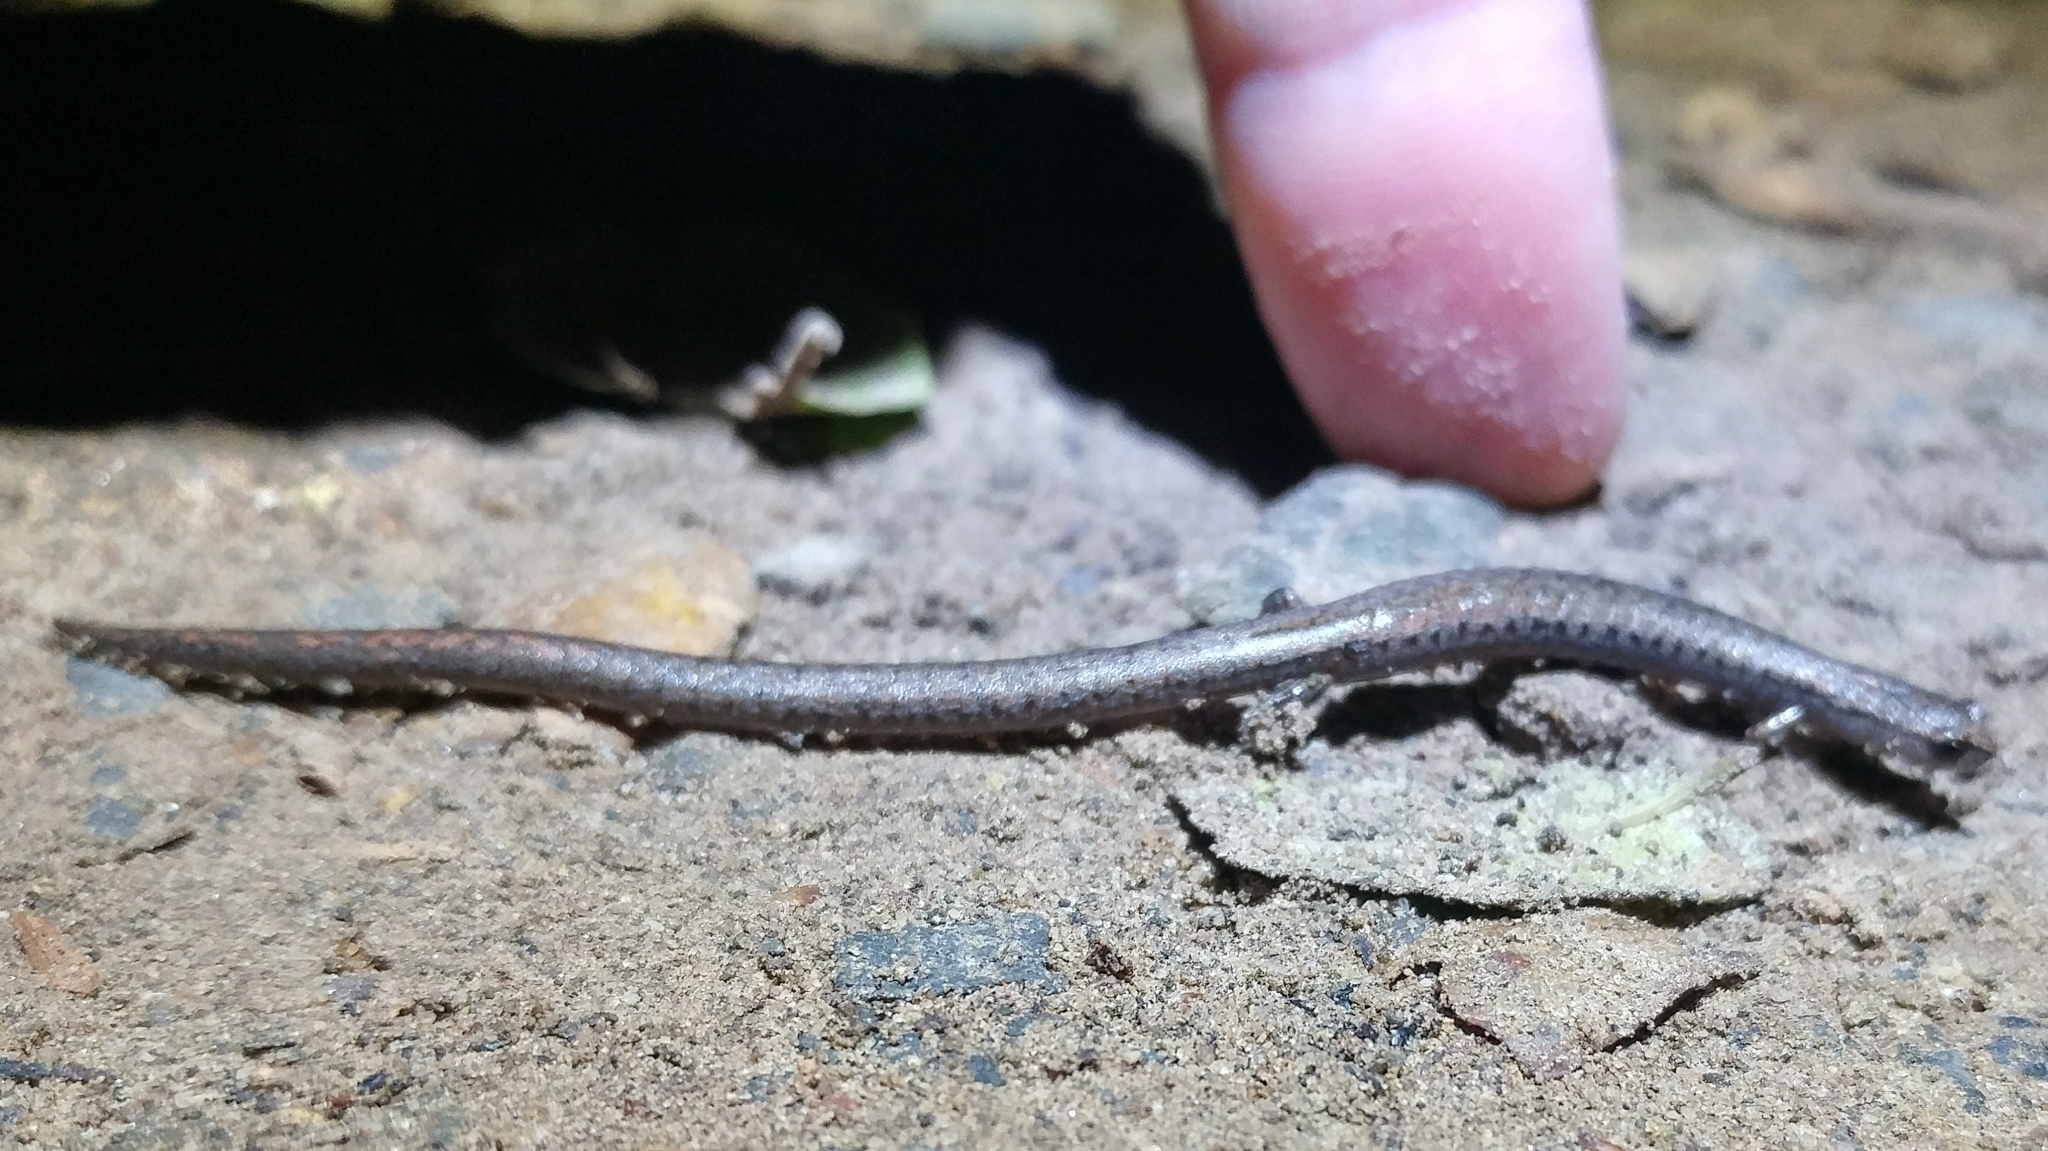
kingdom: Animalia
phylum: Chordata
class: Amphibia
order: Caudata
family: Plethodontidae
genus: Batrachoseps
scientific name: Batrachoseps nigriventris
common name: Black-bellied slender salamander
